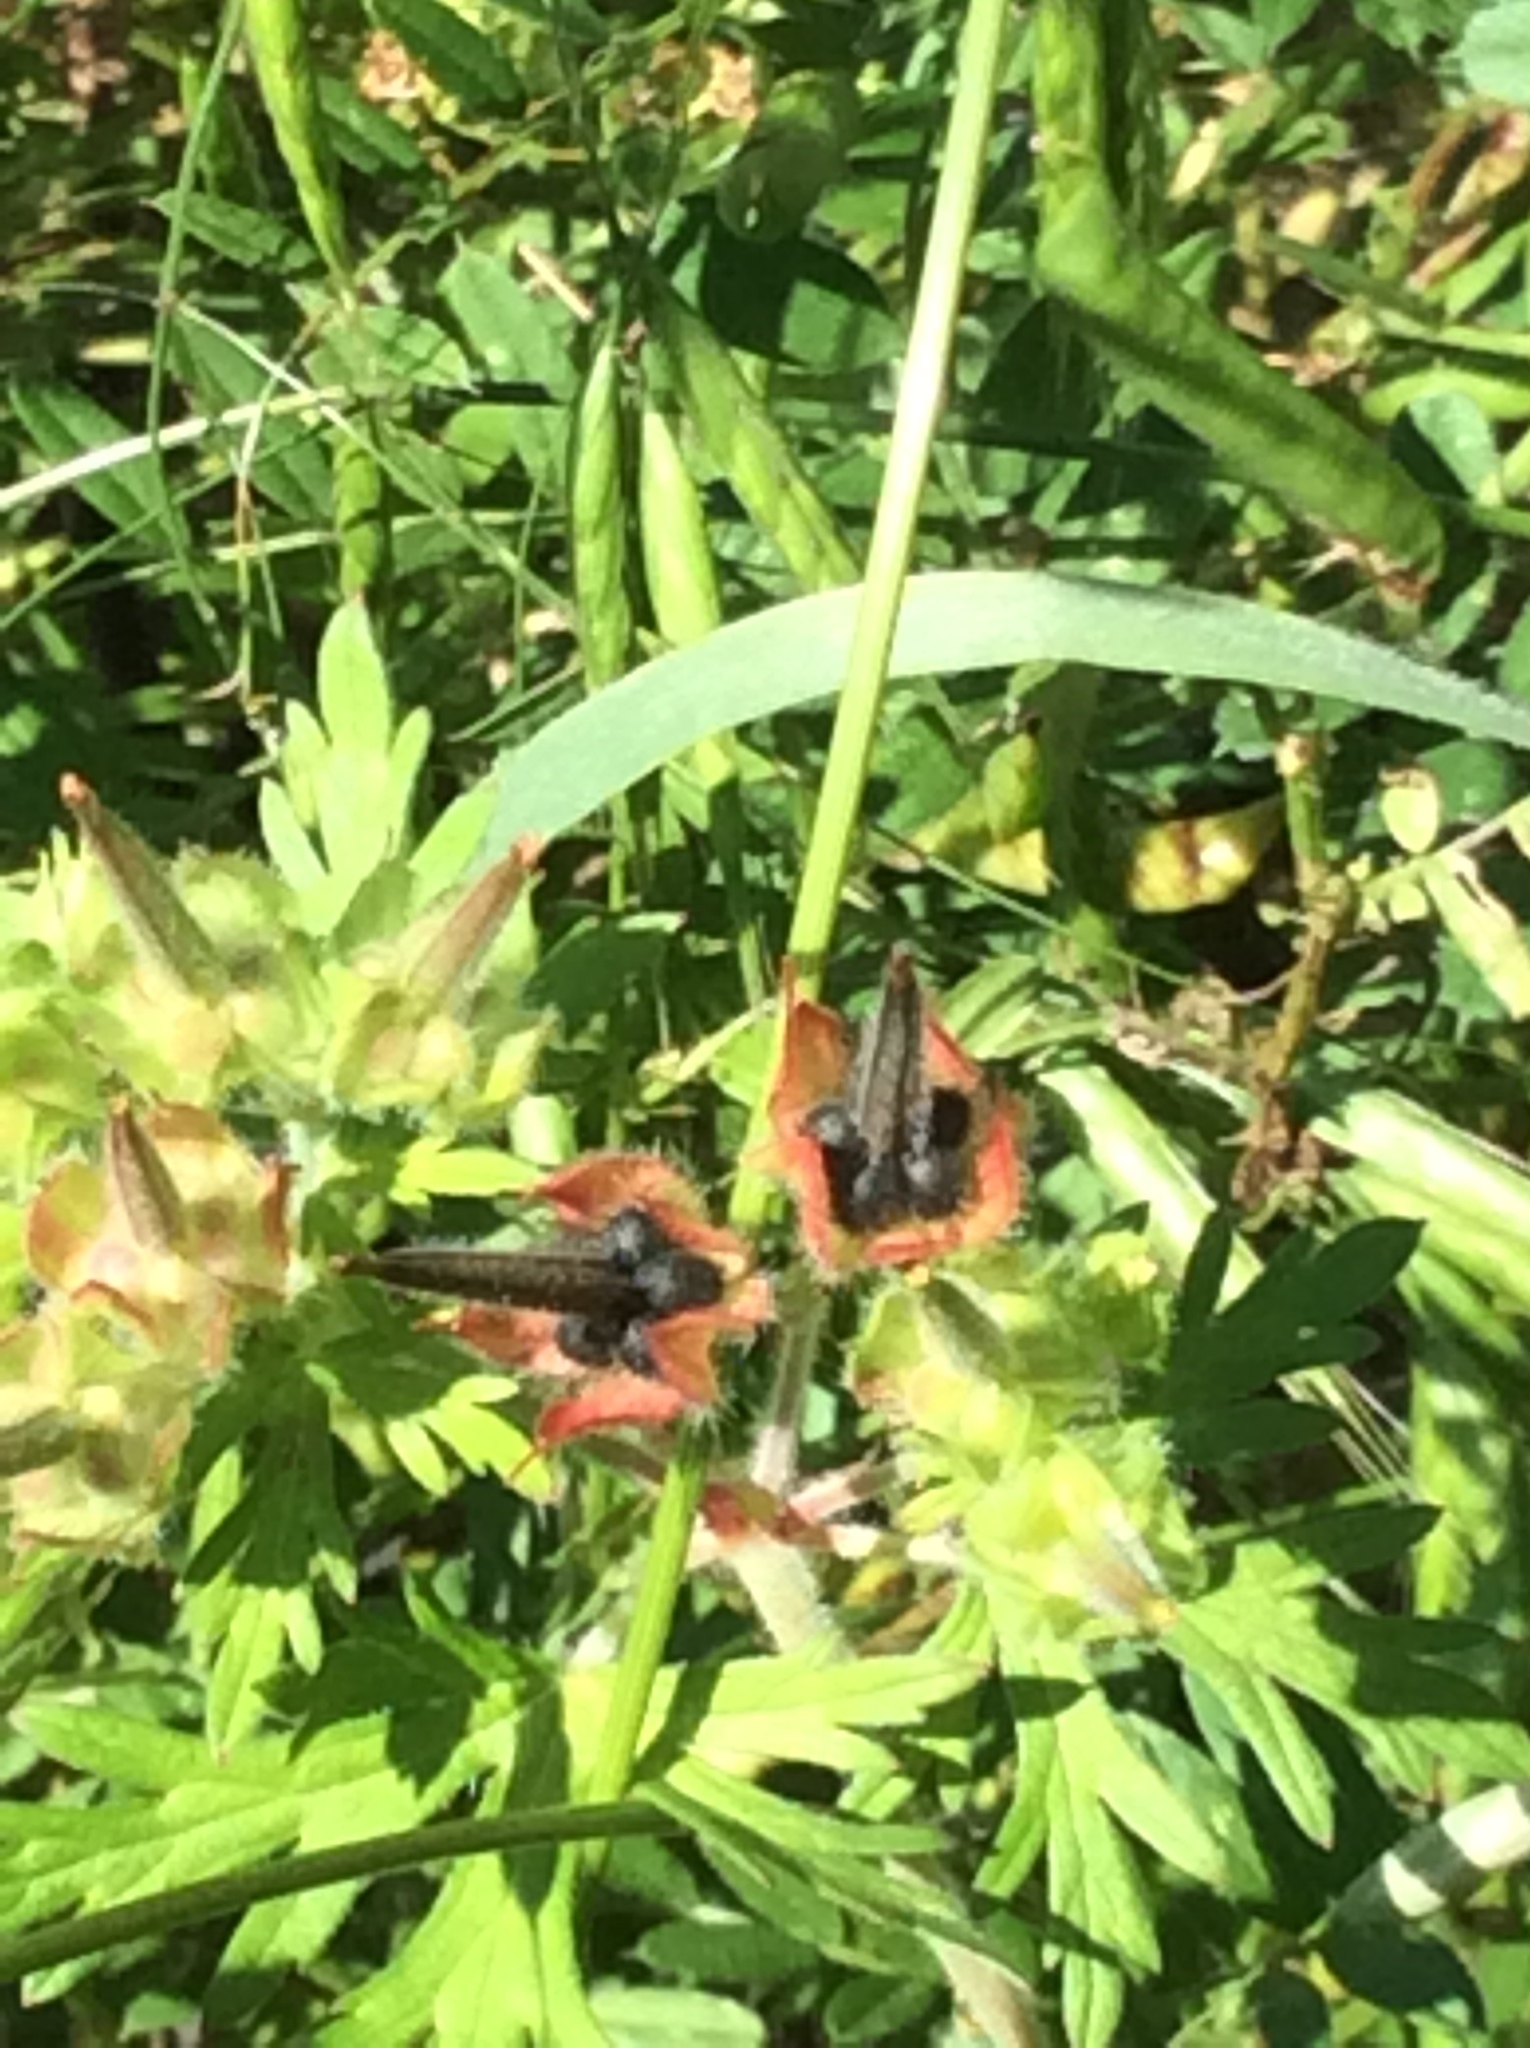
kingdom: Plantae
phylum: Tracheophyta
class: Magnoliopsida
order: Geraniales
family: Geraniaceae
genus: Geranium
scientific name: Geranium carolinianum
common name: Carolina crane's-bill
